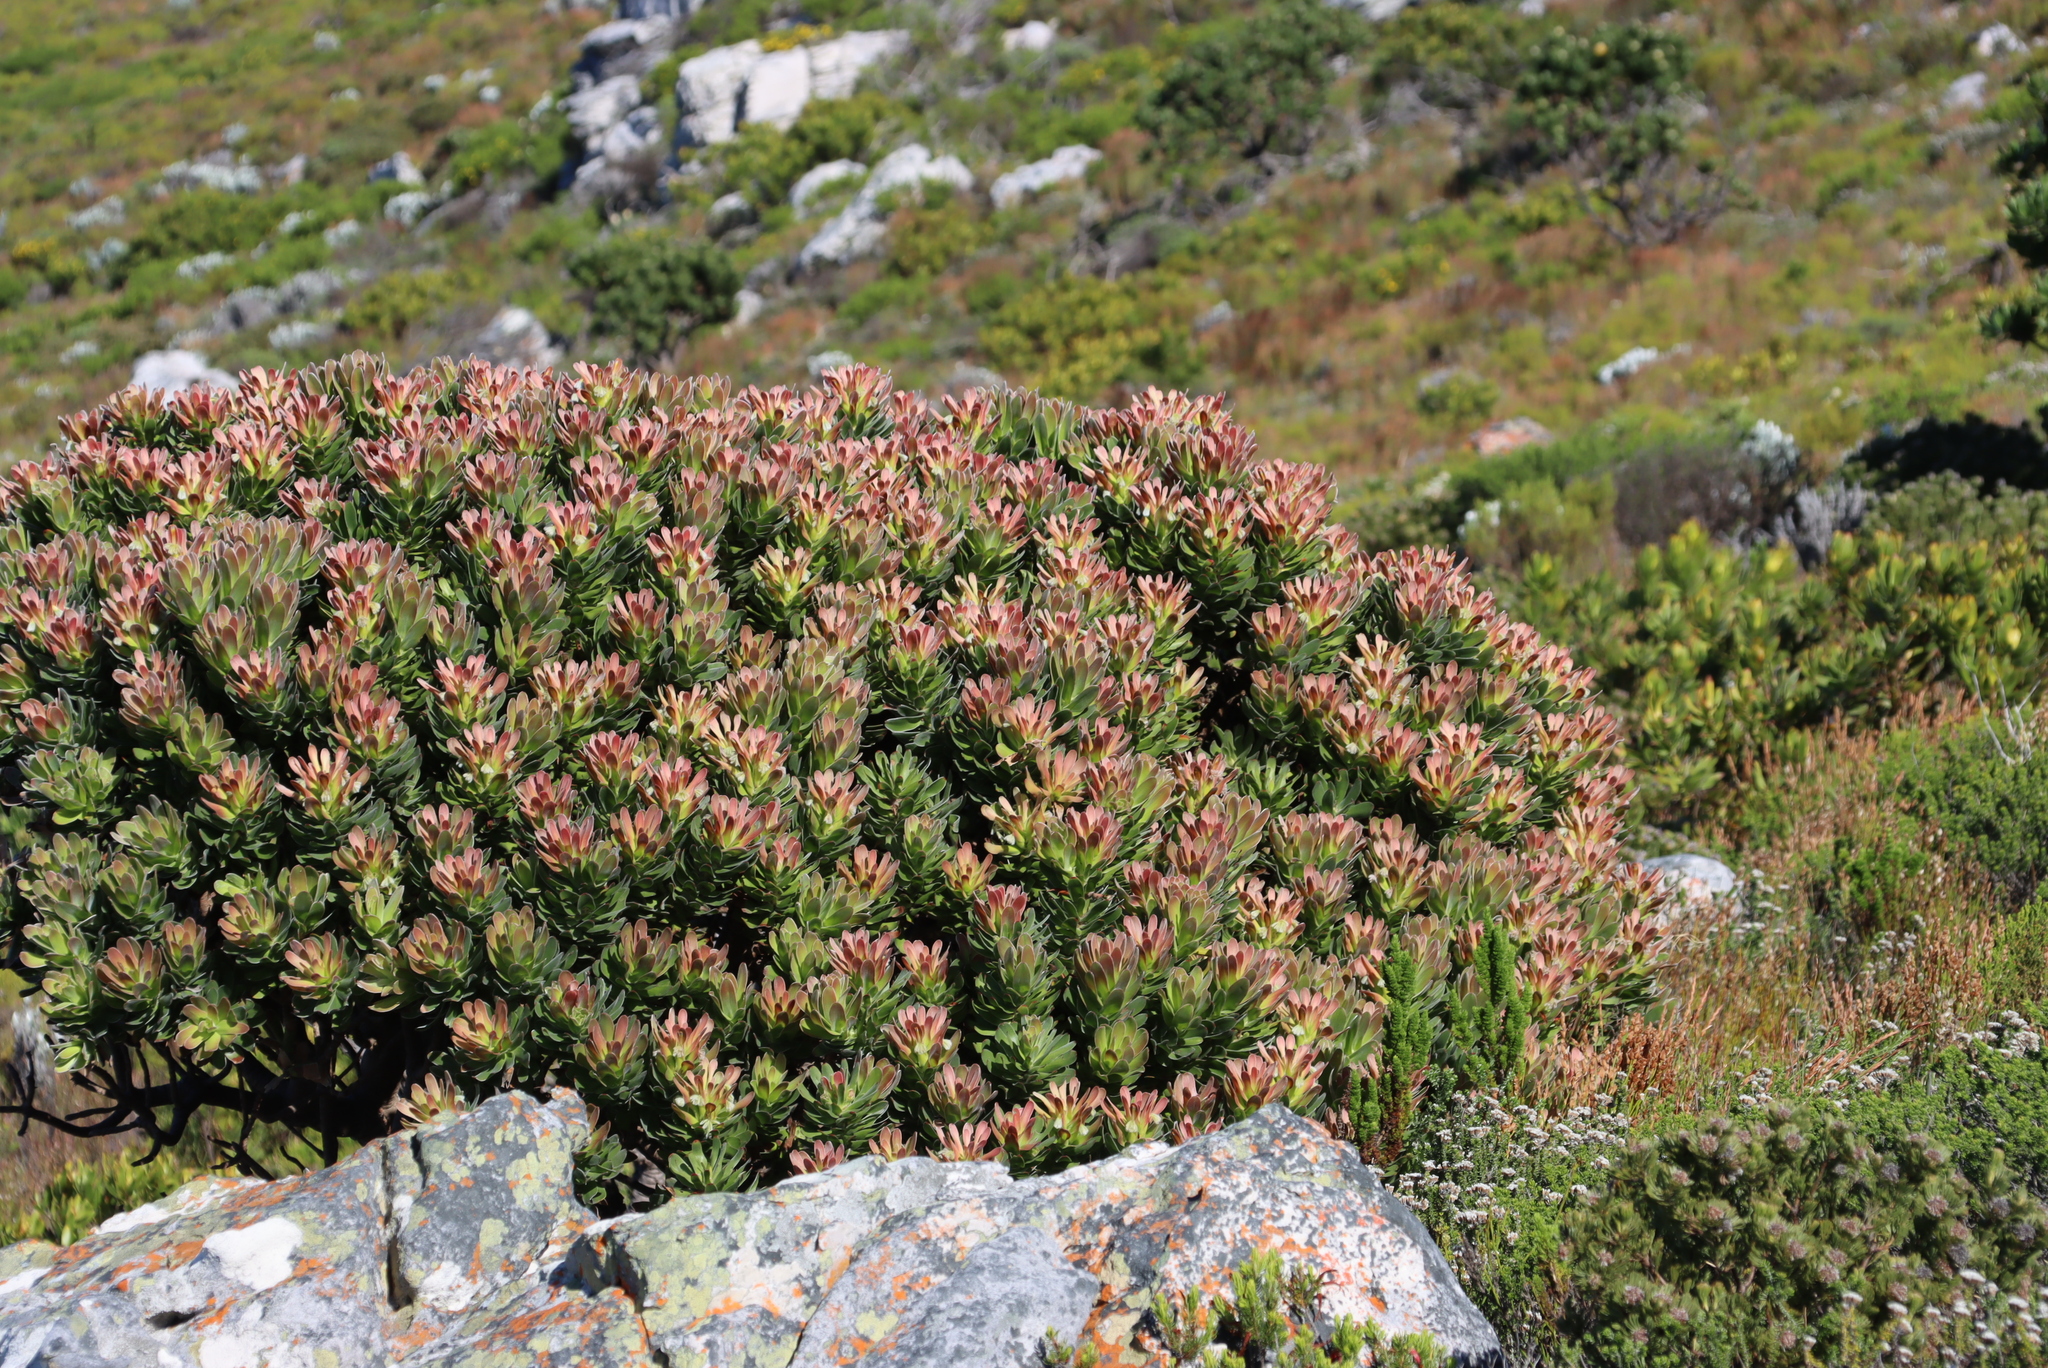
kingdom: Plantae
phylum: Tracheophyta
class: Magnoliopsida
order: Proteales
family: Proteaceae
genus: Mimetes
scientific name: Mimetes fimbriifolius
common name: Fringed bottlebrush
